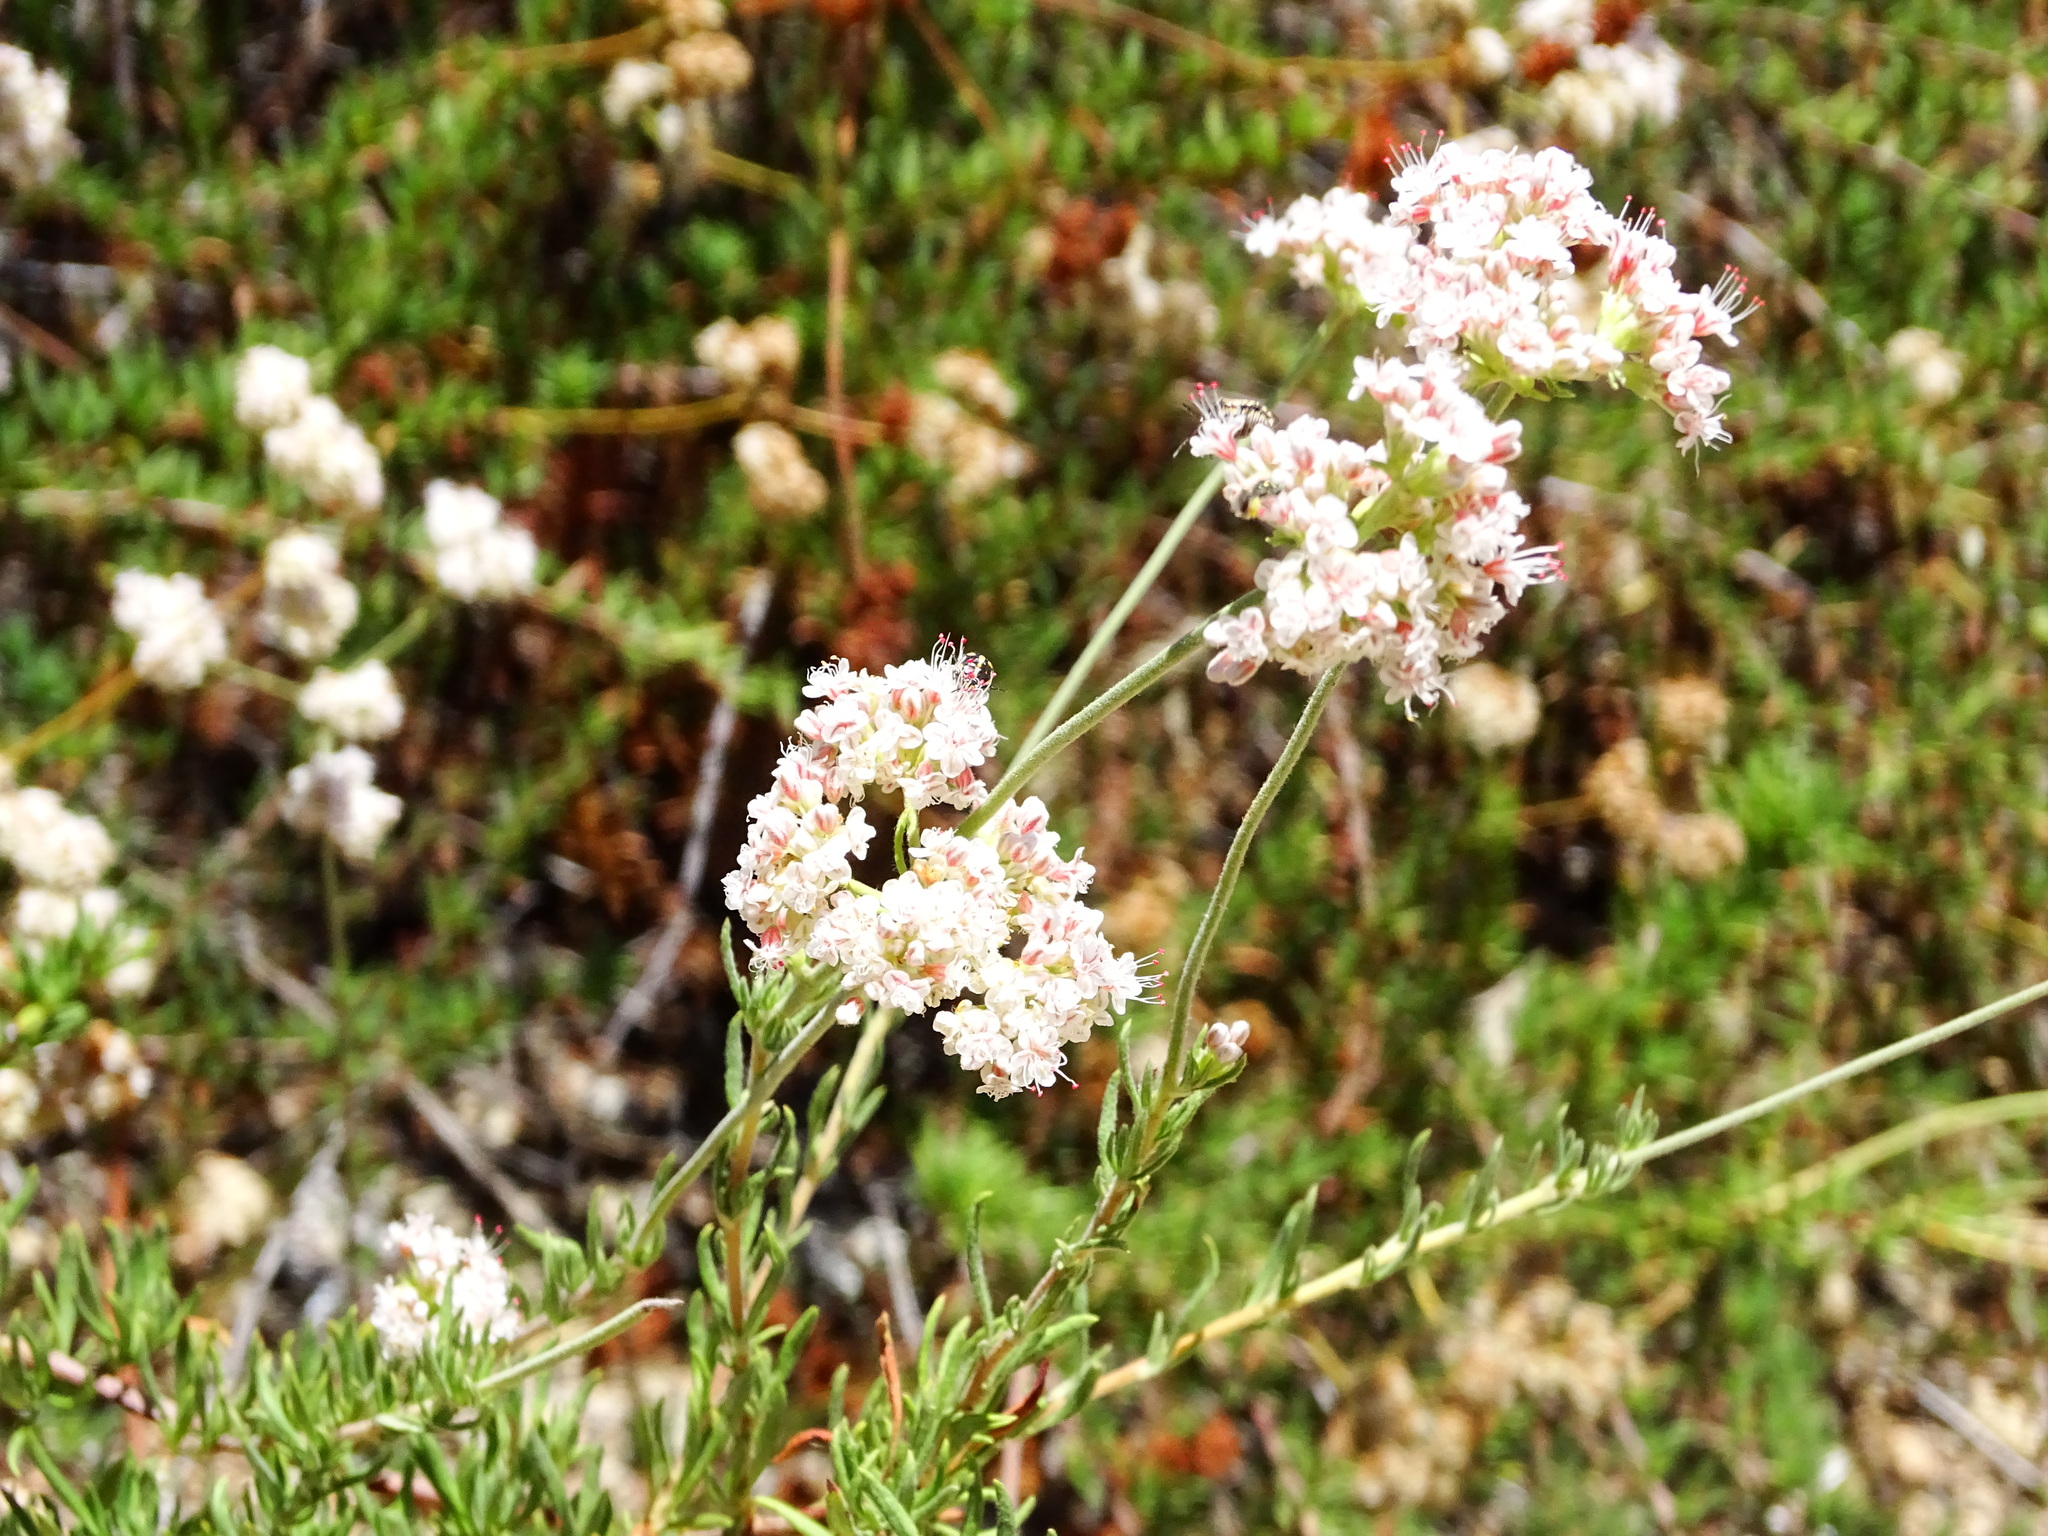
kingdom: Plantae
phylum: Tracheophyta
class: Magnoliopsida
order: Caryophyllales
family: Polygonaceae
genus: Eriogonum
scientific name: Eriogonum fasciculatum
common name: California wild buckwheat
